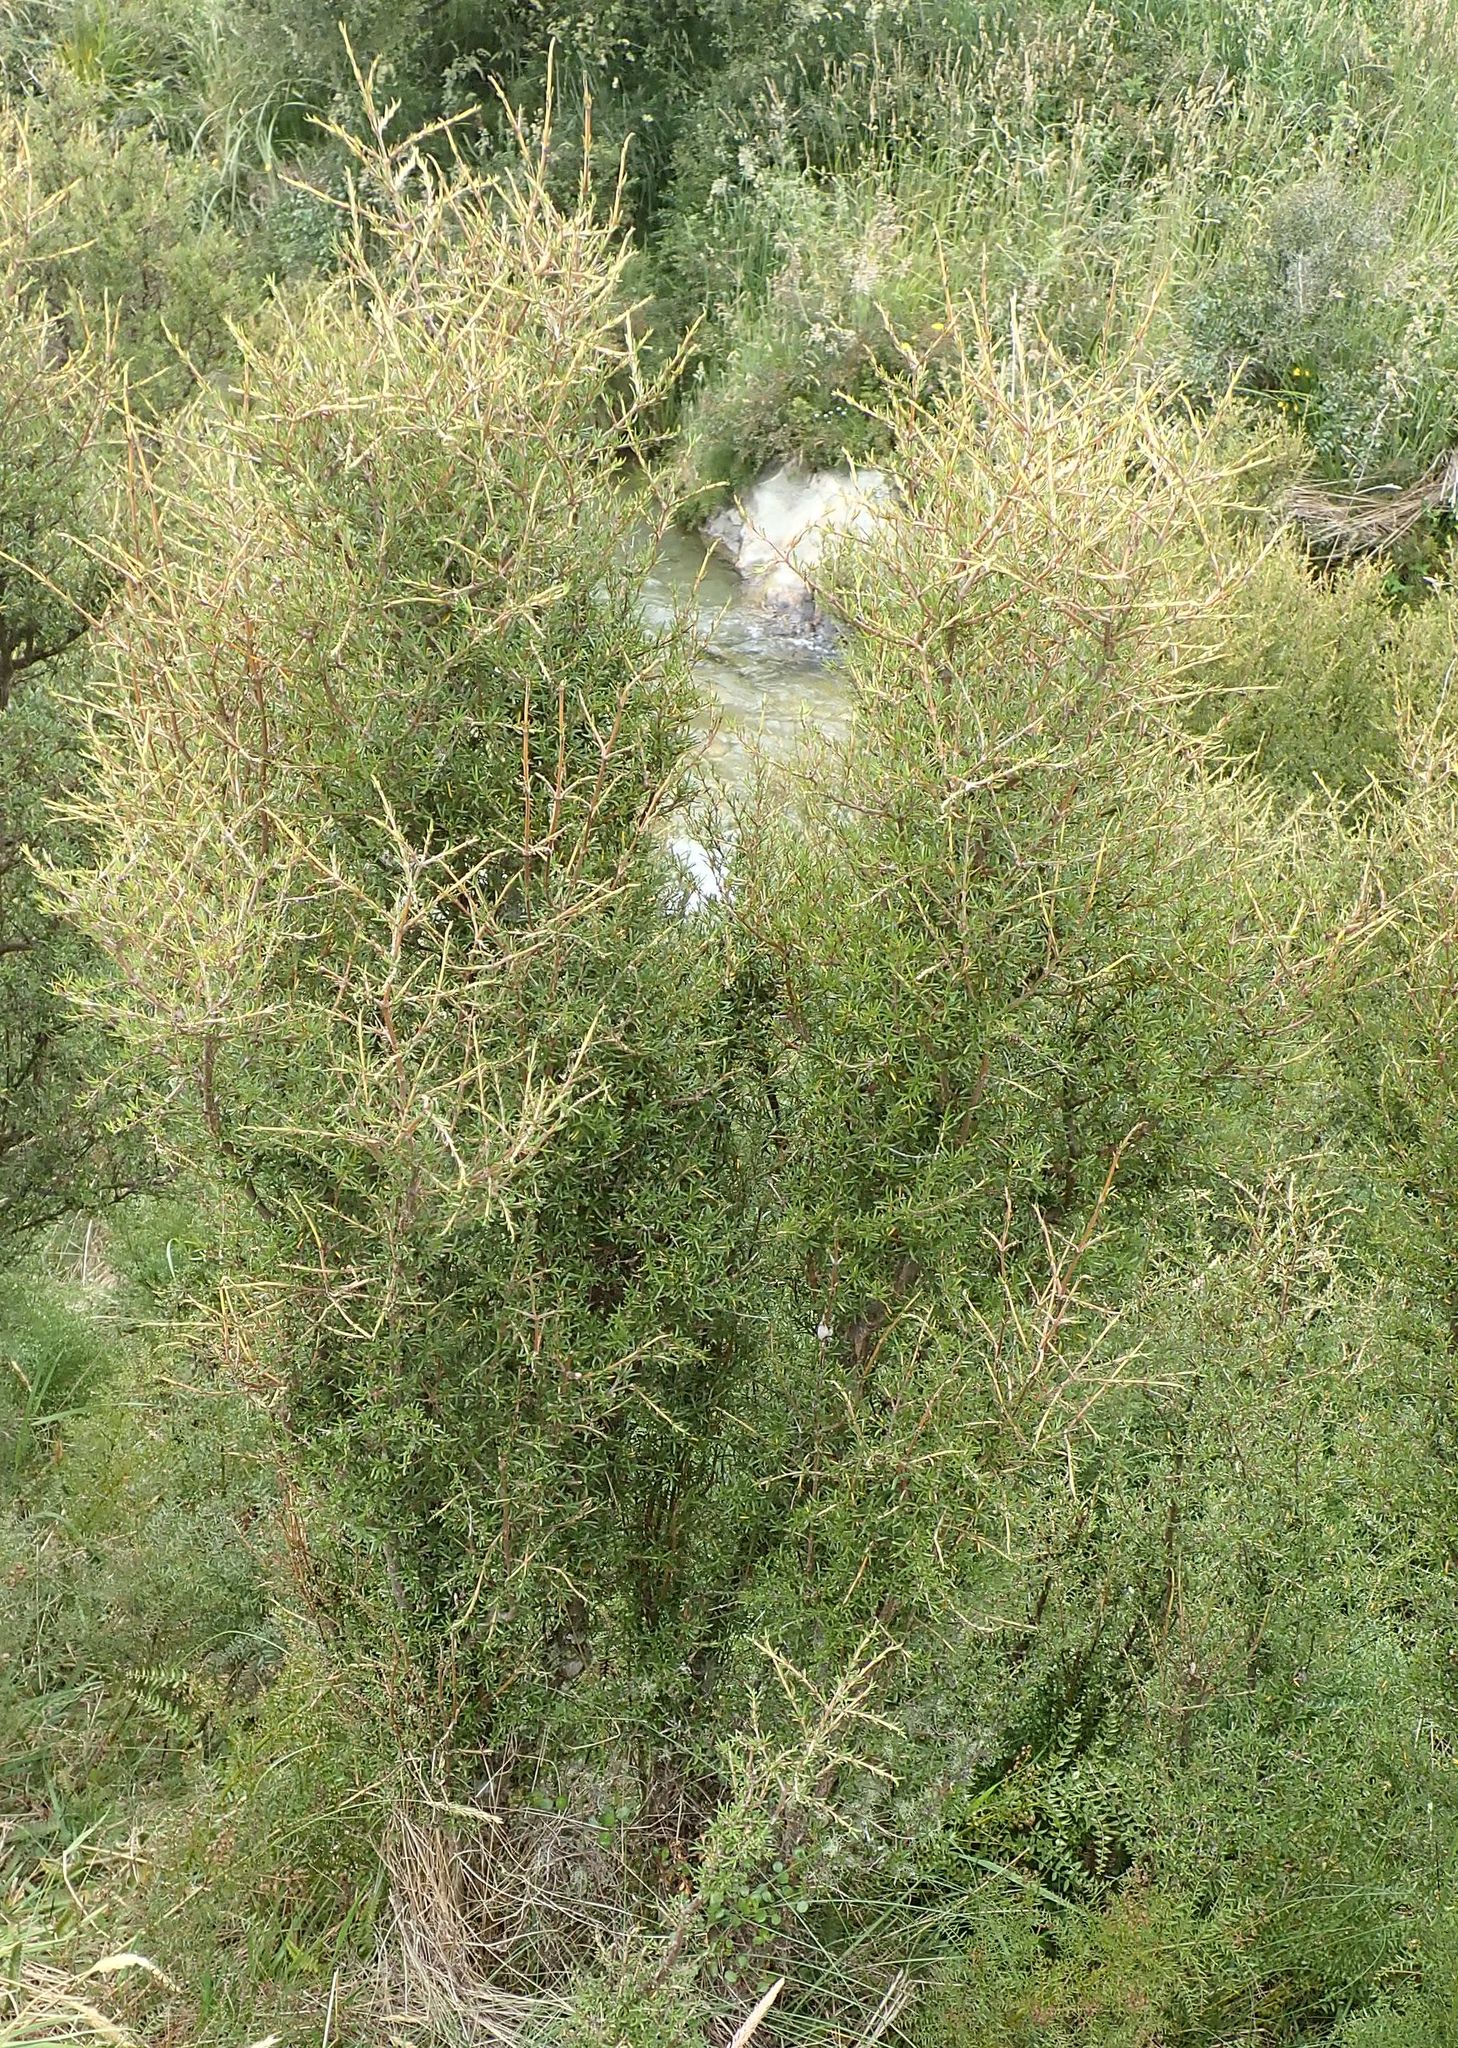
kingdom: Plantae
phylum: Tracheophyta
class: Magnoliopsida
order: Gentianales
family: Rubiaceae
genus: Coprosma
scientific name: Coprosma rugosa
